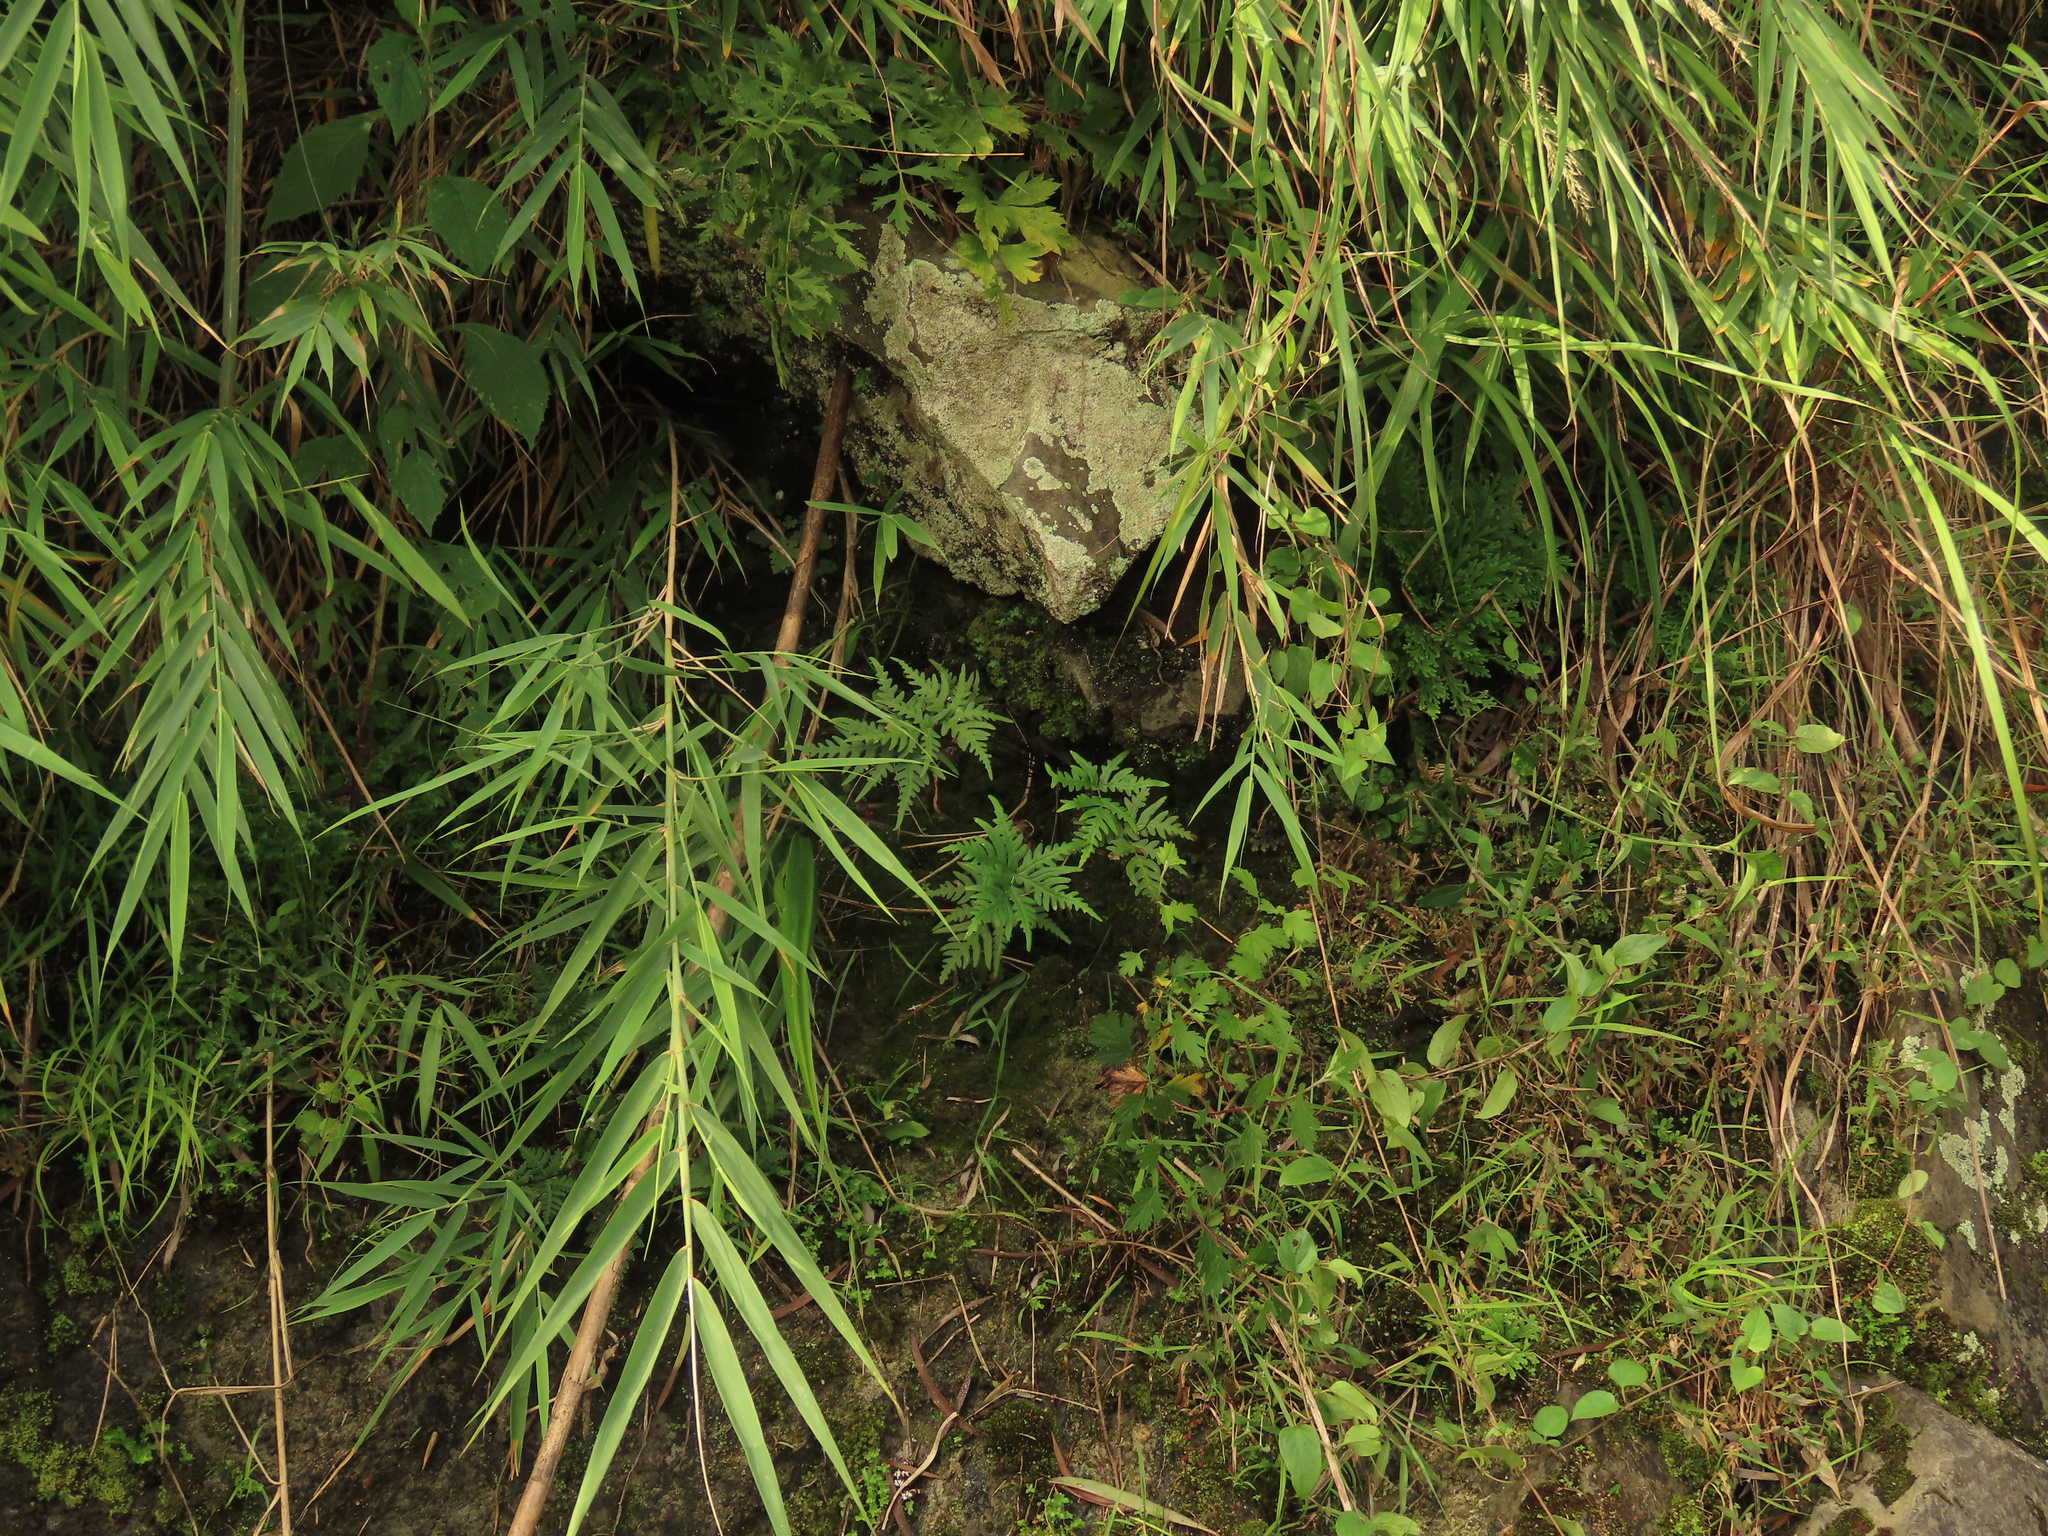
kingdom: Plantae
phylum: Tracheophyta
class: Polypodiopsida
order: Polypodiales
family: Pteridaceae
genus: Aleuritopteris
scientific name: Aleuritopteris argentea
